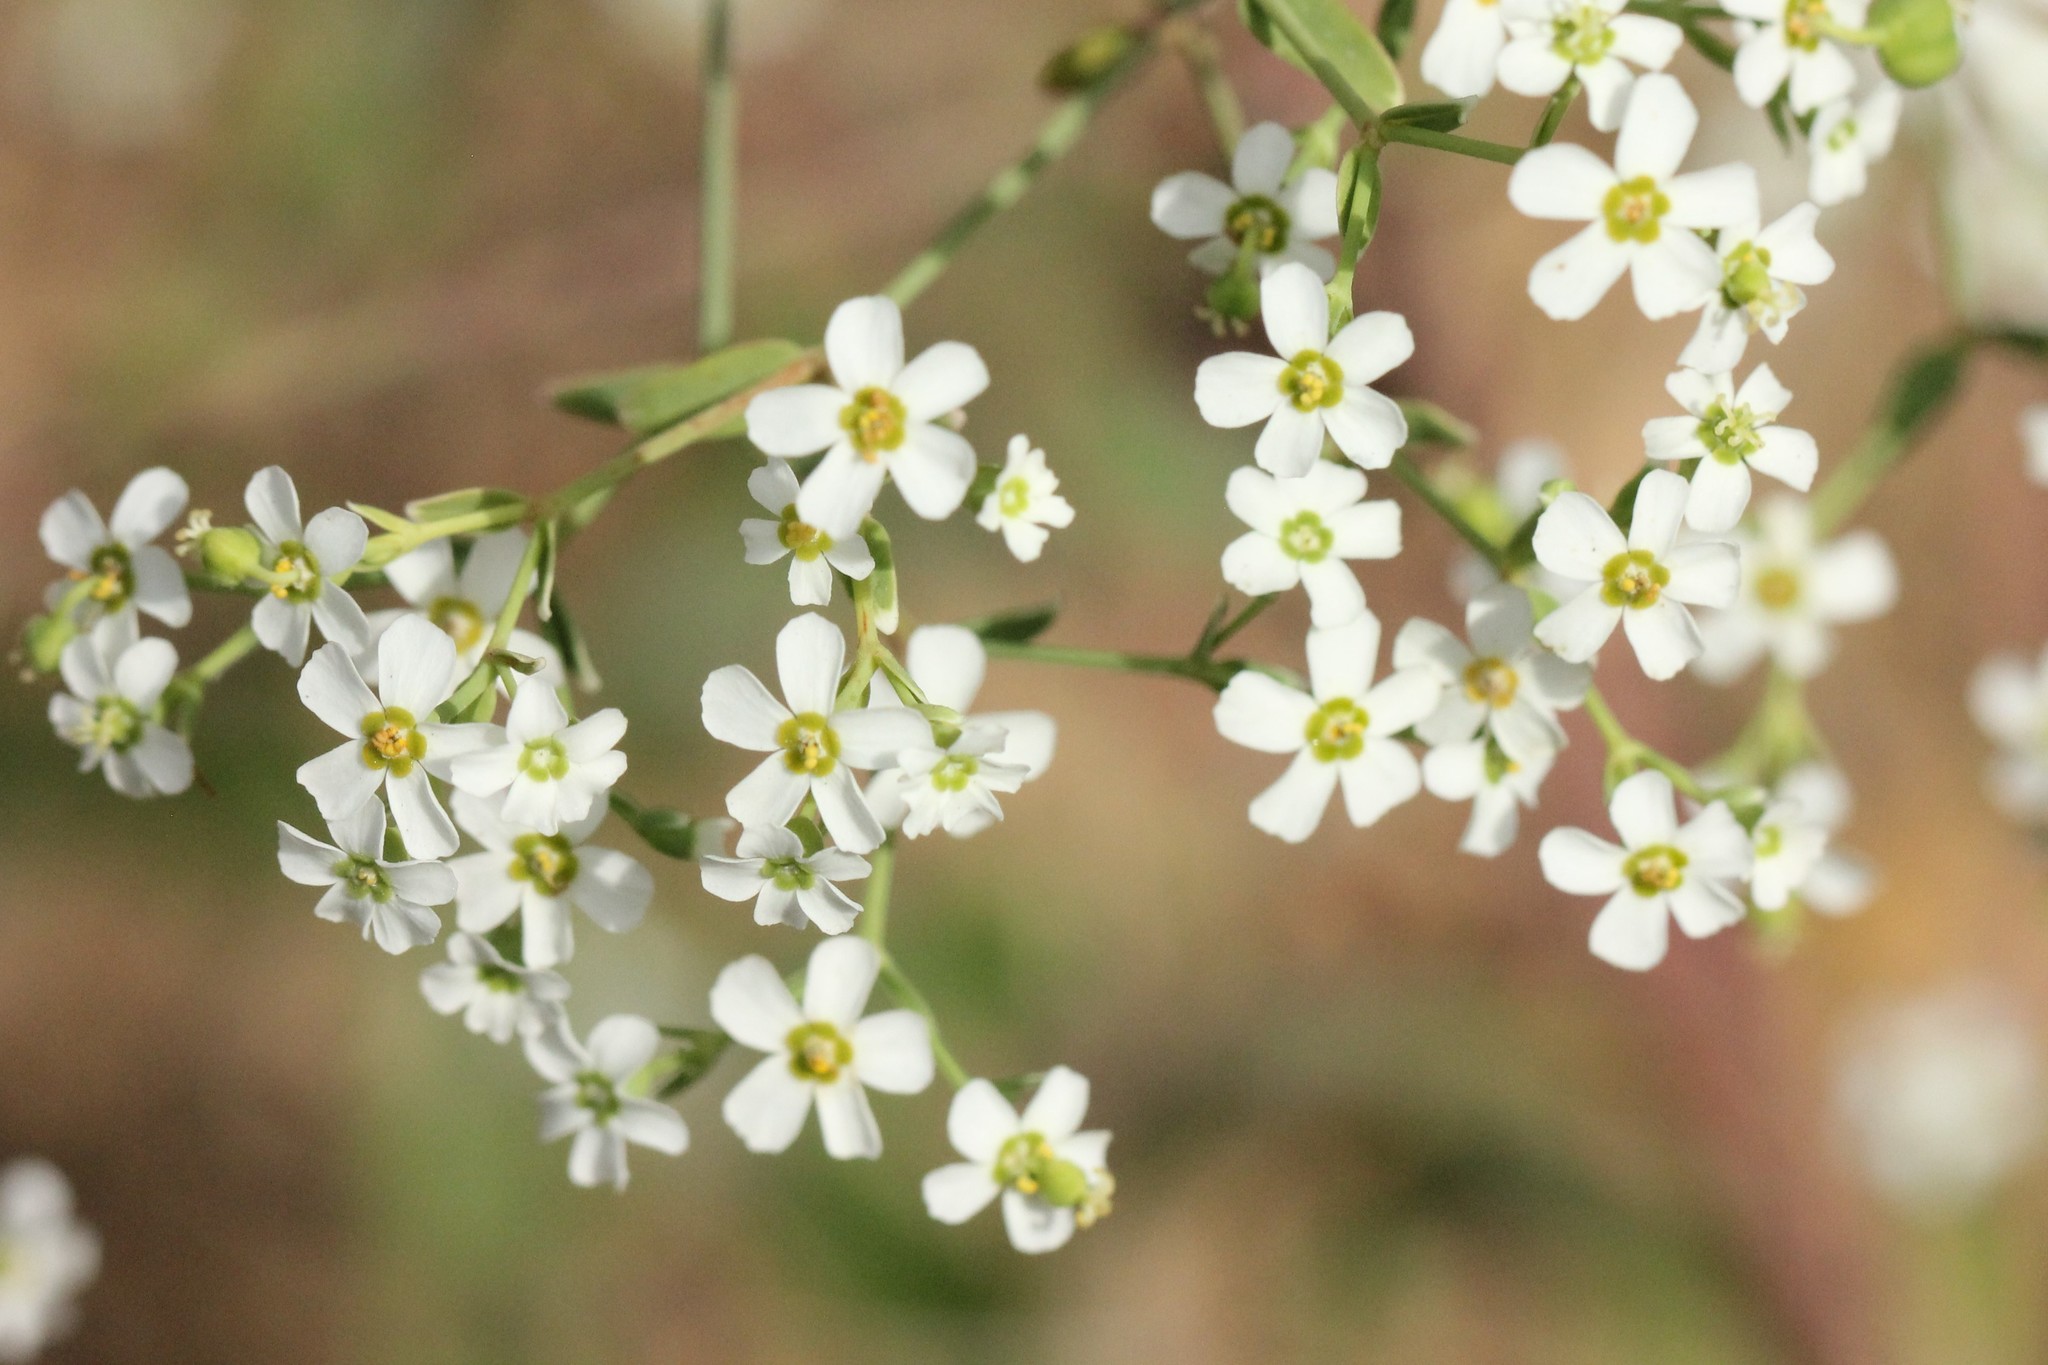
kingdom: Plantae
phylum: Tracheophyta
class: Magnoliopsida
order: Malpighiales
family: Euphorbiaceae
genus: Euphorbia
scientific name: Euphorbia corollata
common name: Flowering spurge
